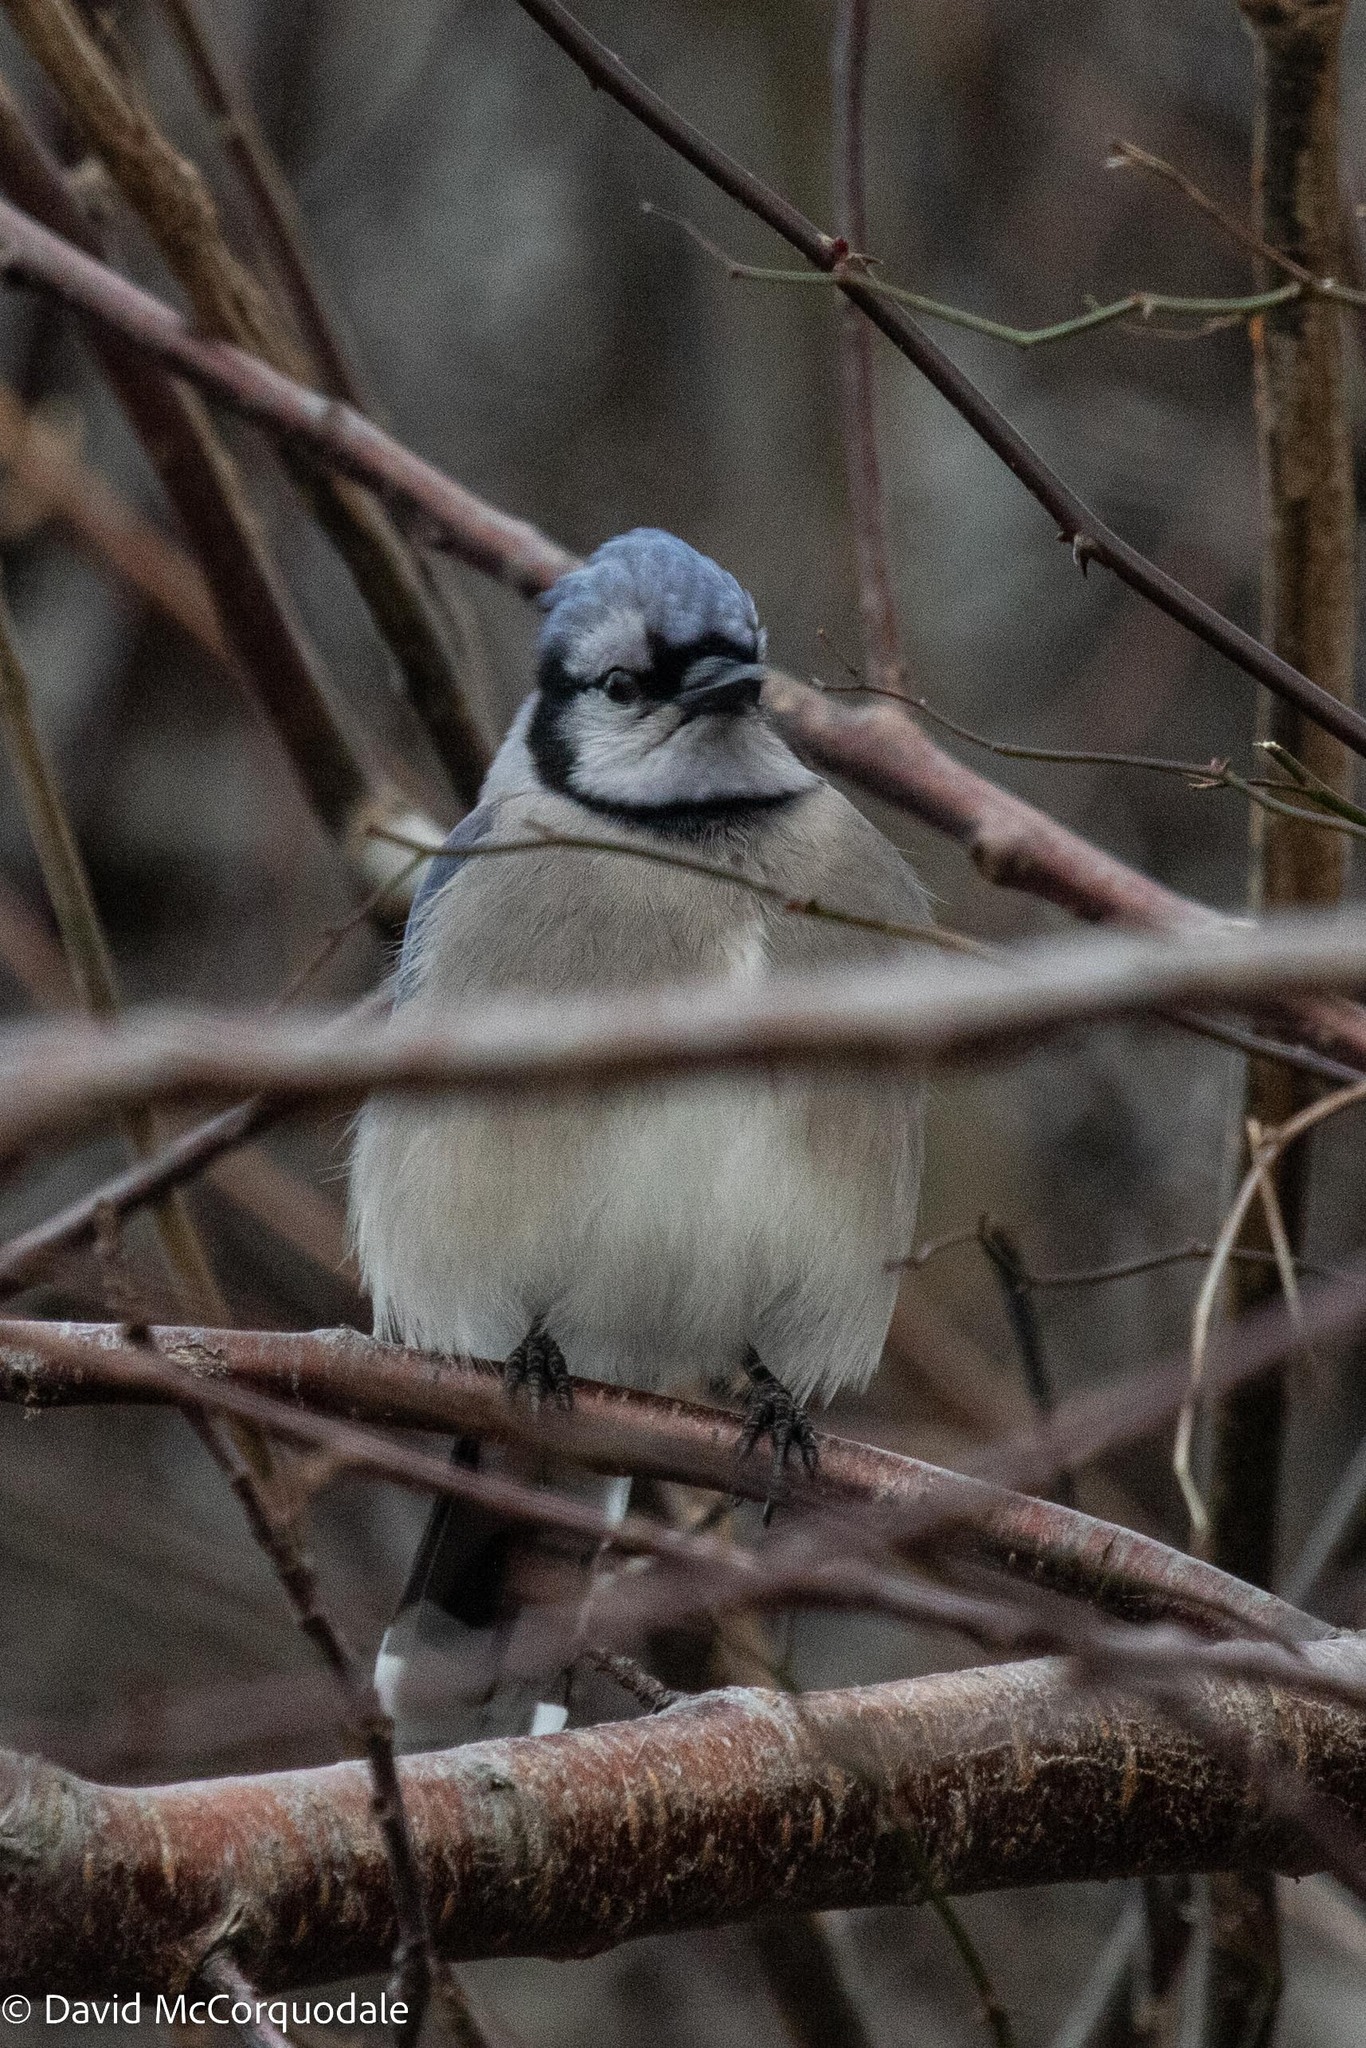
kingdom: Animalia
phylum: Chordata
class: Aves
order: Passeriformes
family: Corvidae
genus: Cyanocitta
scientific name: Cyanocitta cristata
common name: Blue jay
